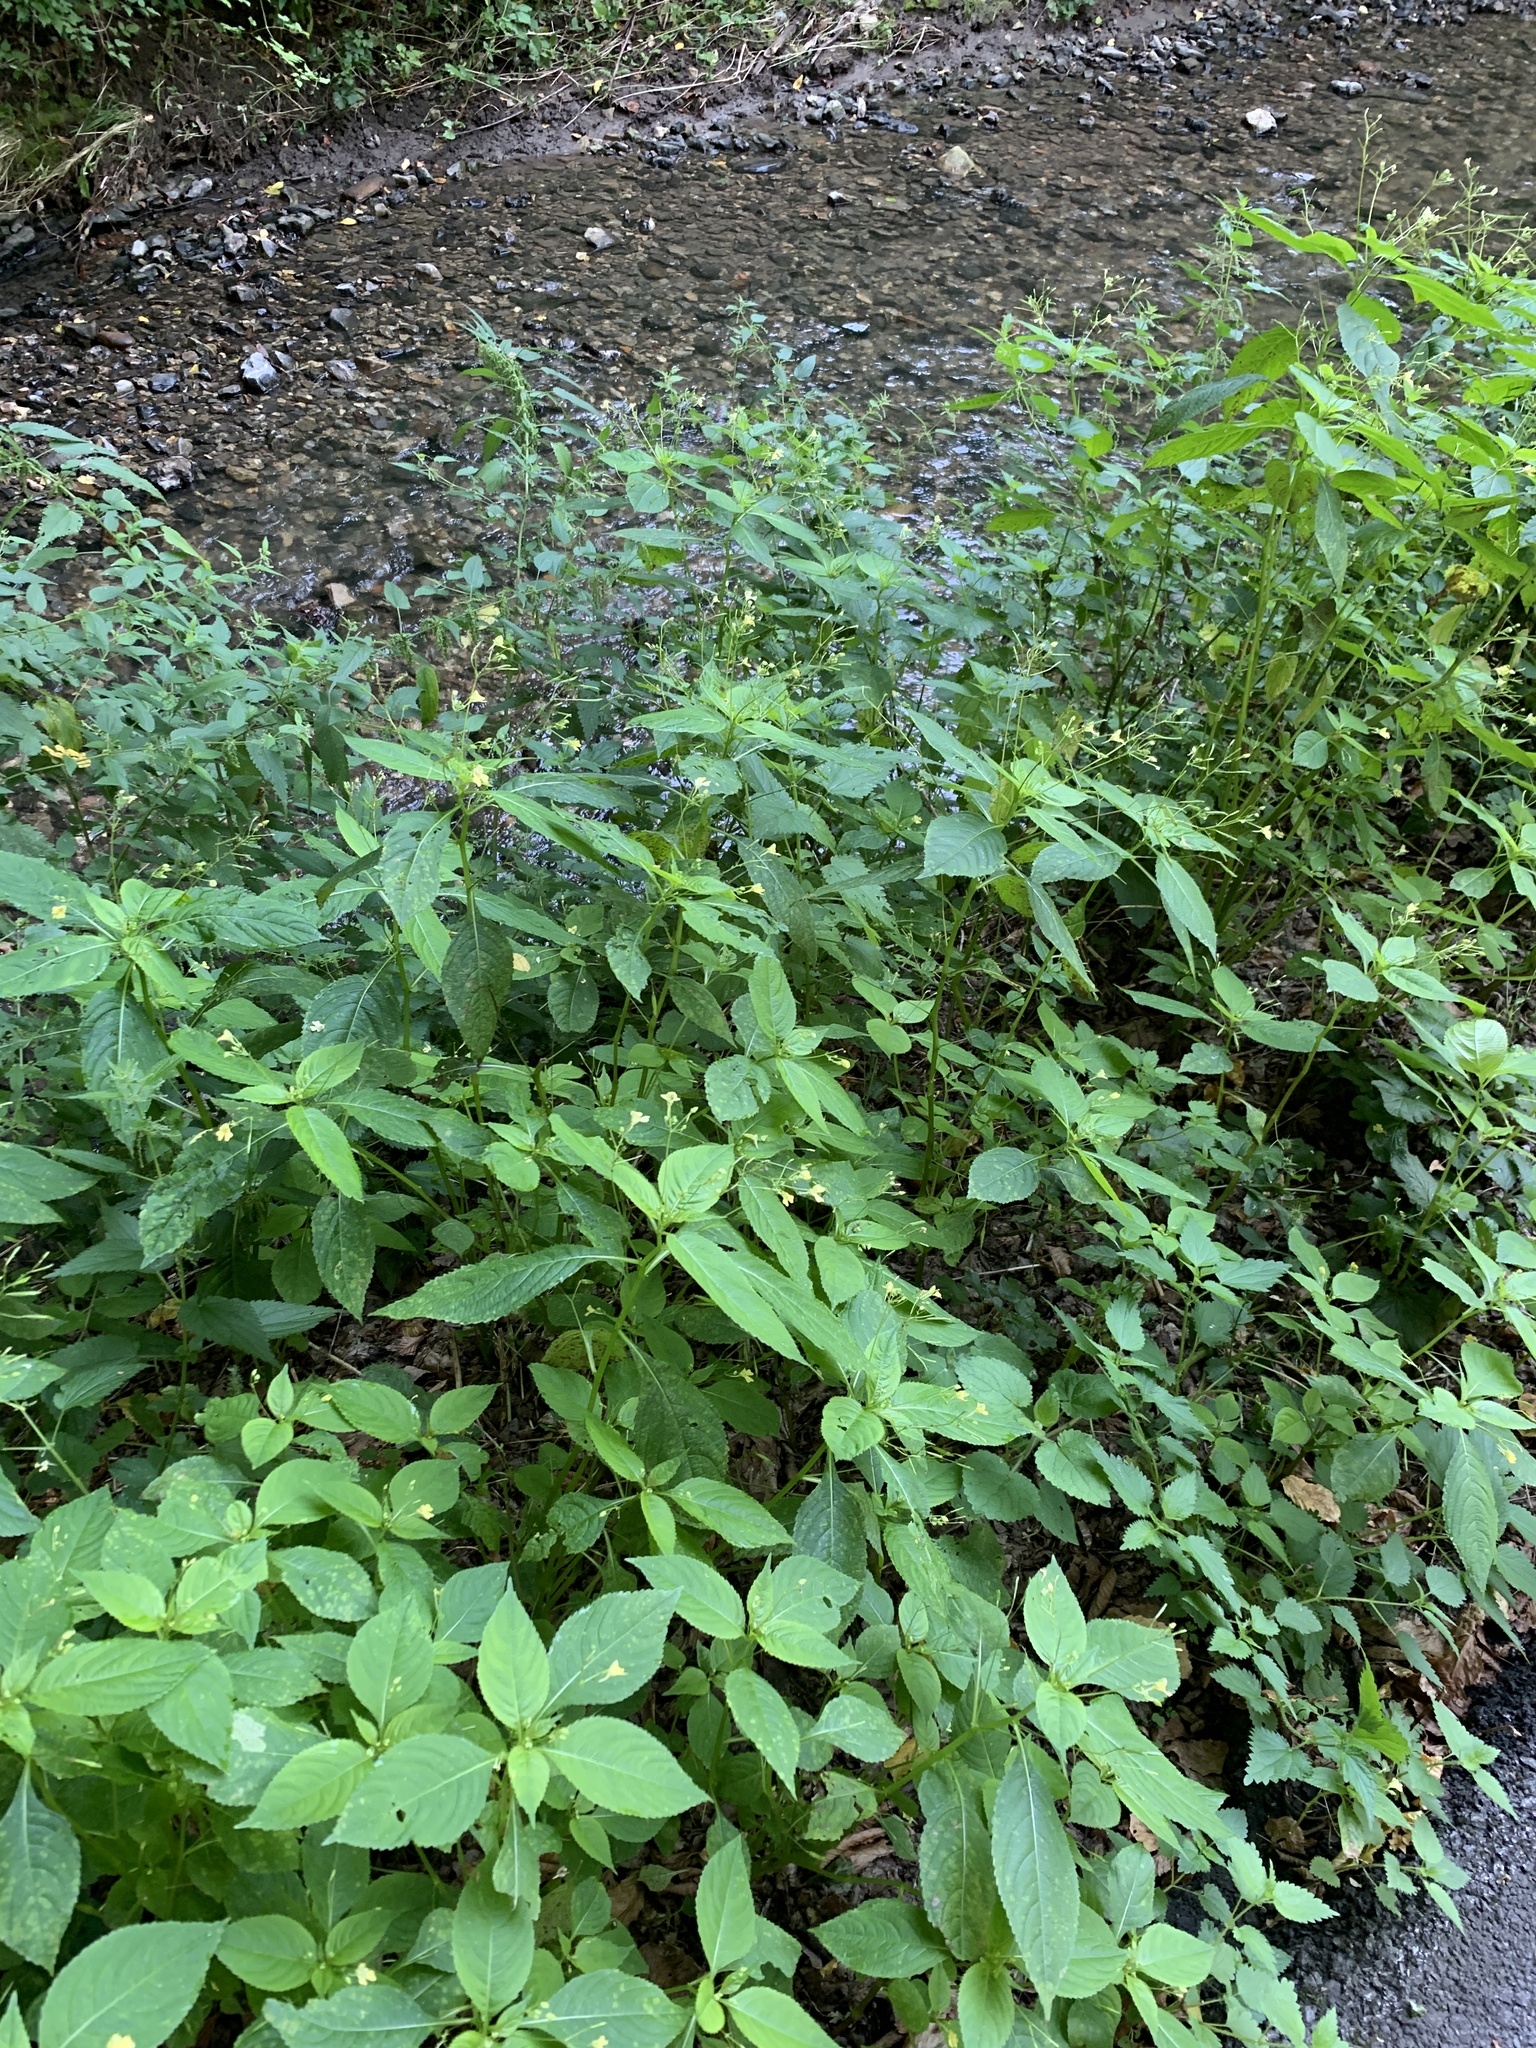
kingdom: Plantae
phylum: Tracheophyta
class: Magnoliopsida
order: Ericales
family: Balsaminaceae
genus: Impatiens
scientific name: Impatiens parviflora
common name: Small balsam
